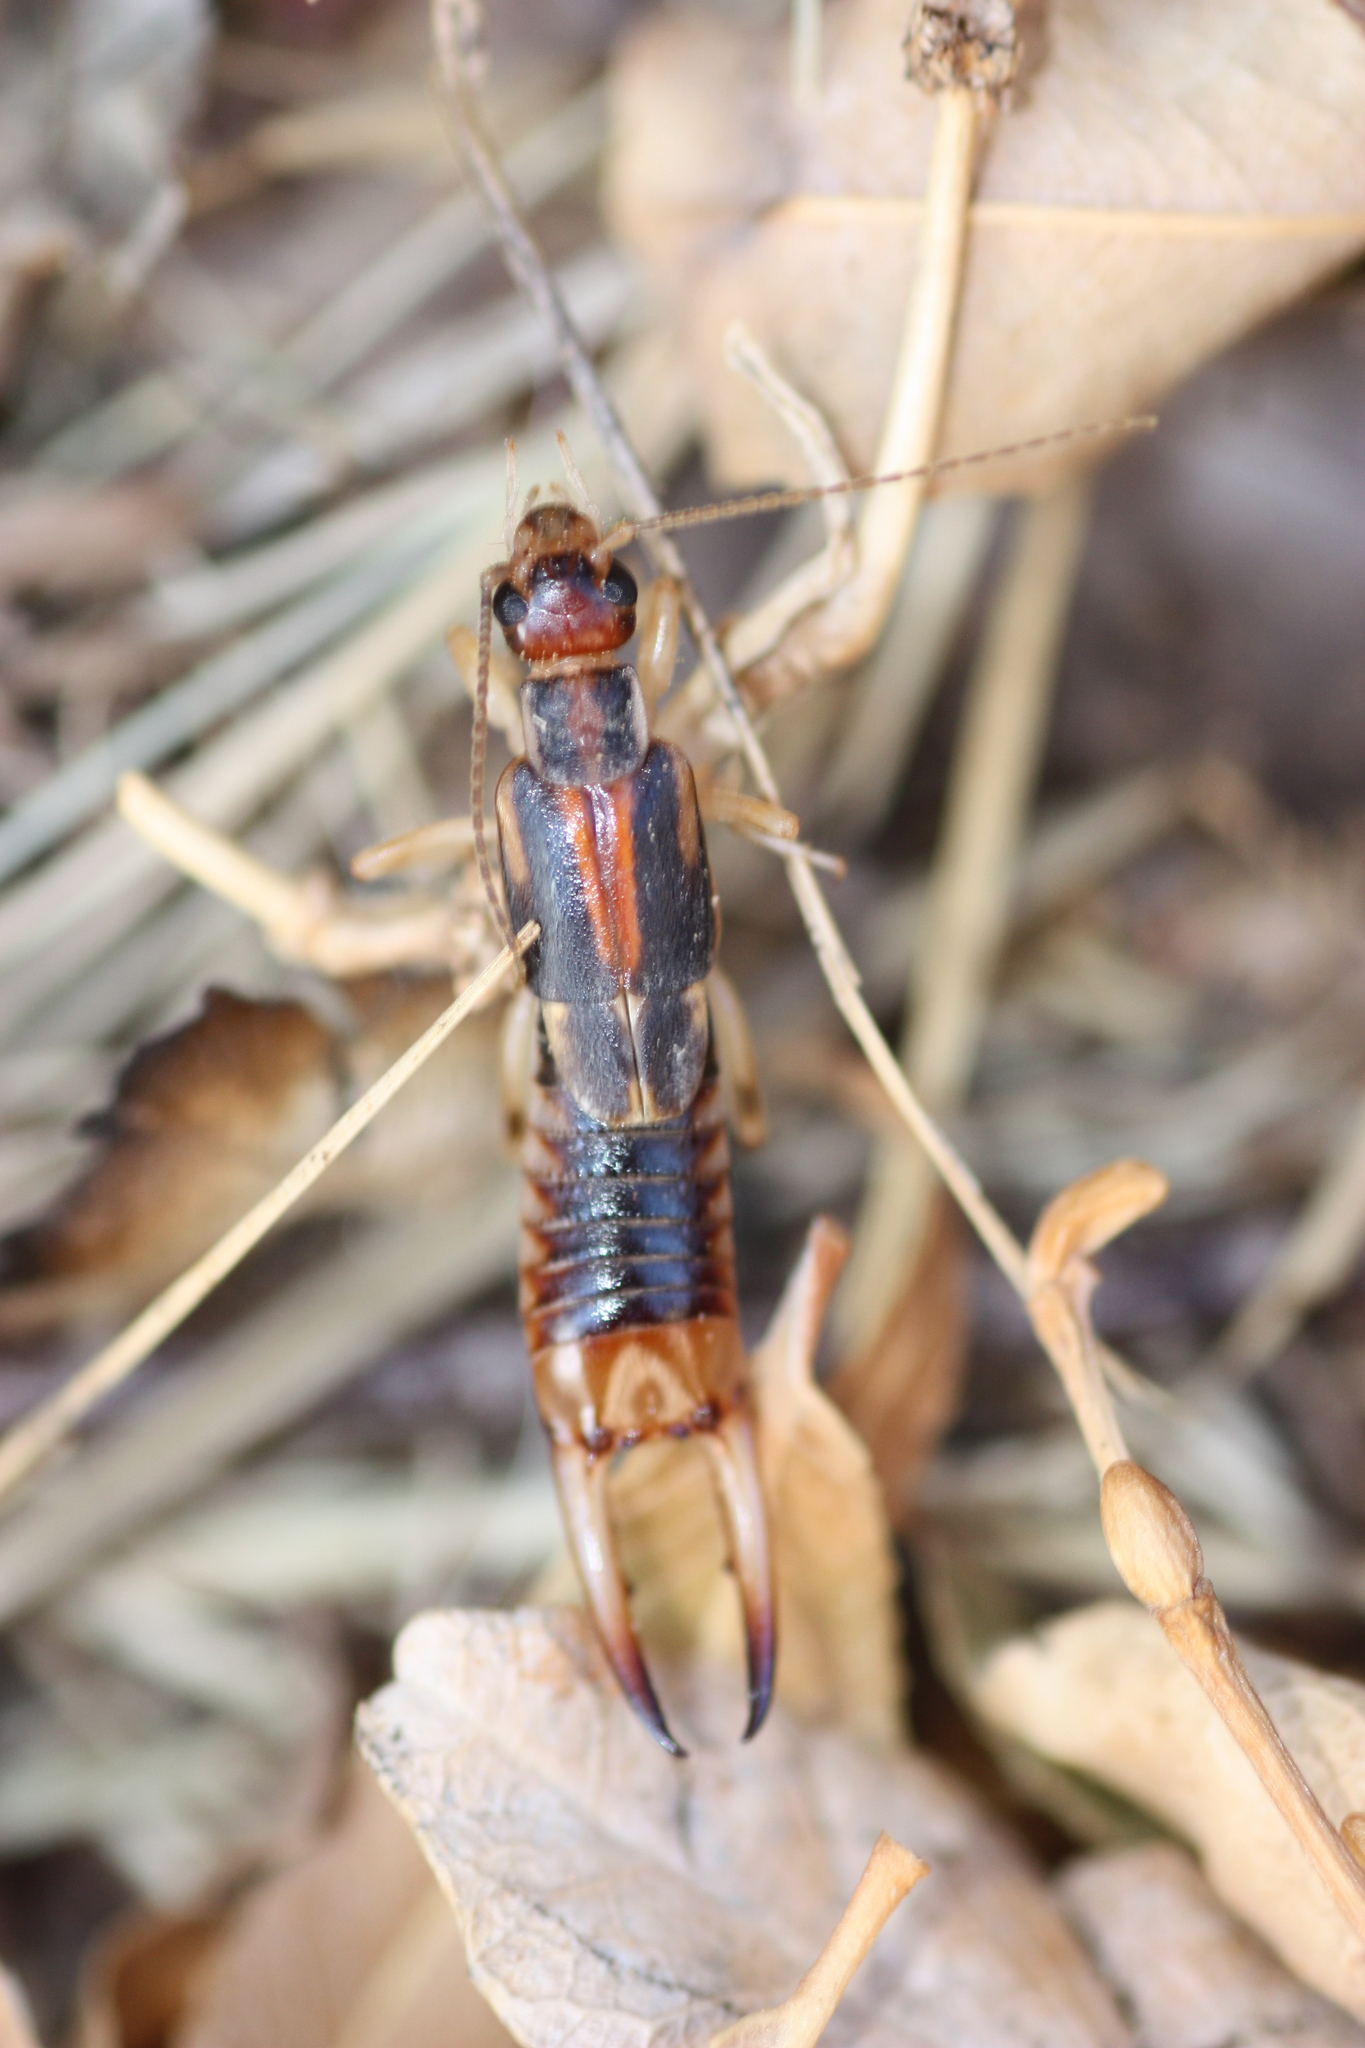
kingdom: Animalia
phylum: Arthropoda
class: Insecta
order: Dermaptera
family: Labiduridae
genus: Labidura
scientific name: Labidura riparia
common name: Striped earwig
